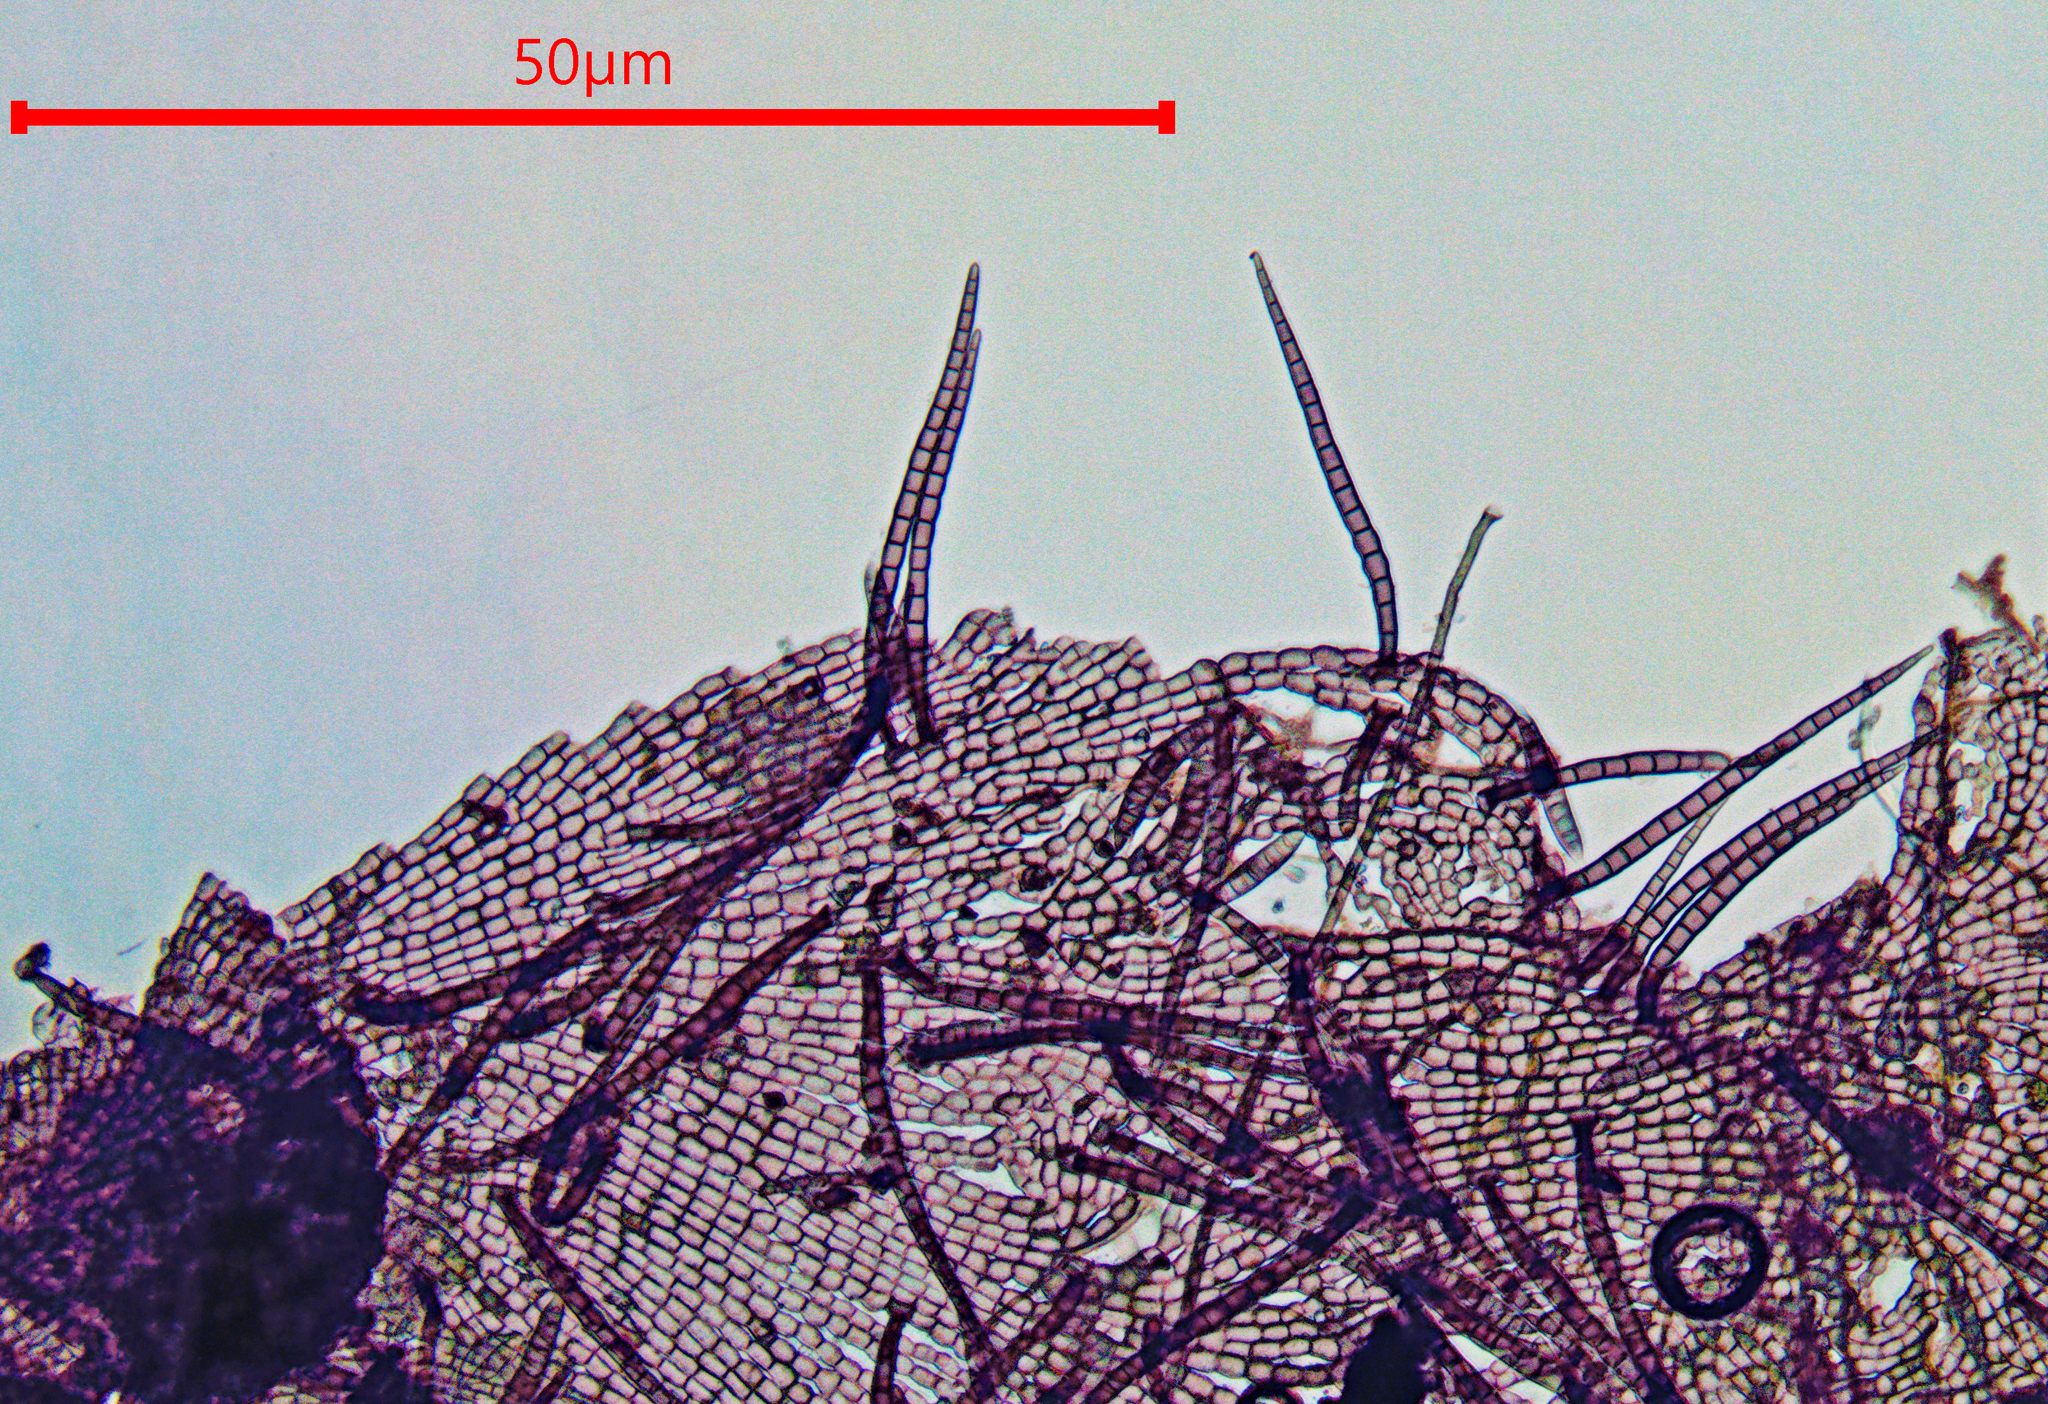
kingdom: Fungi
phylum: Ascomycota
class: Dothideomycetes
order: Capnodiales
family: Euantennariaceae
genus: Trichothallus
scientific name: Trichothallus niger
